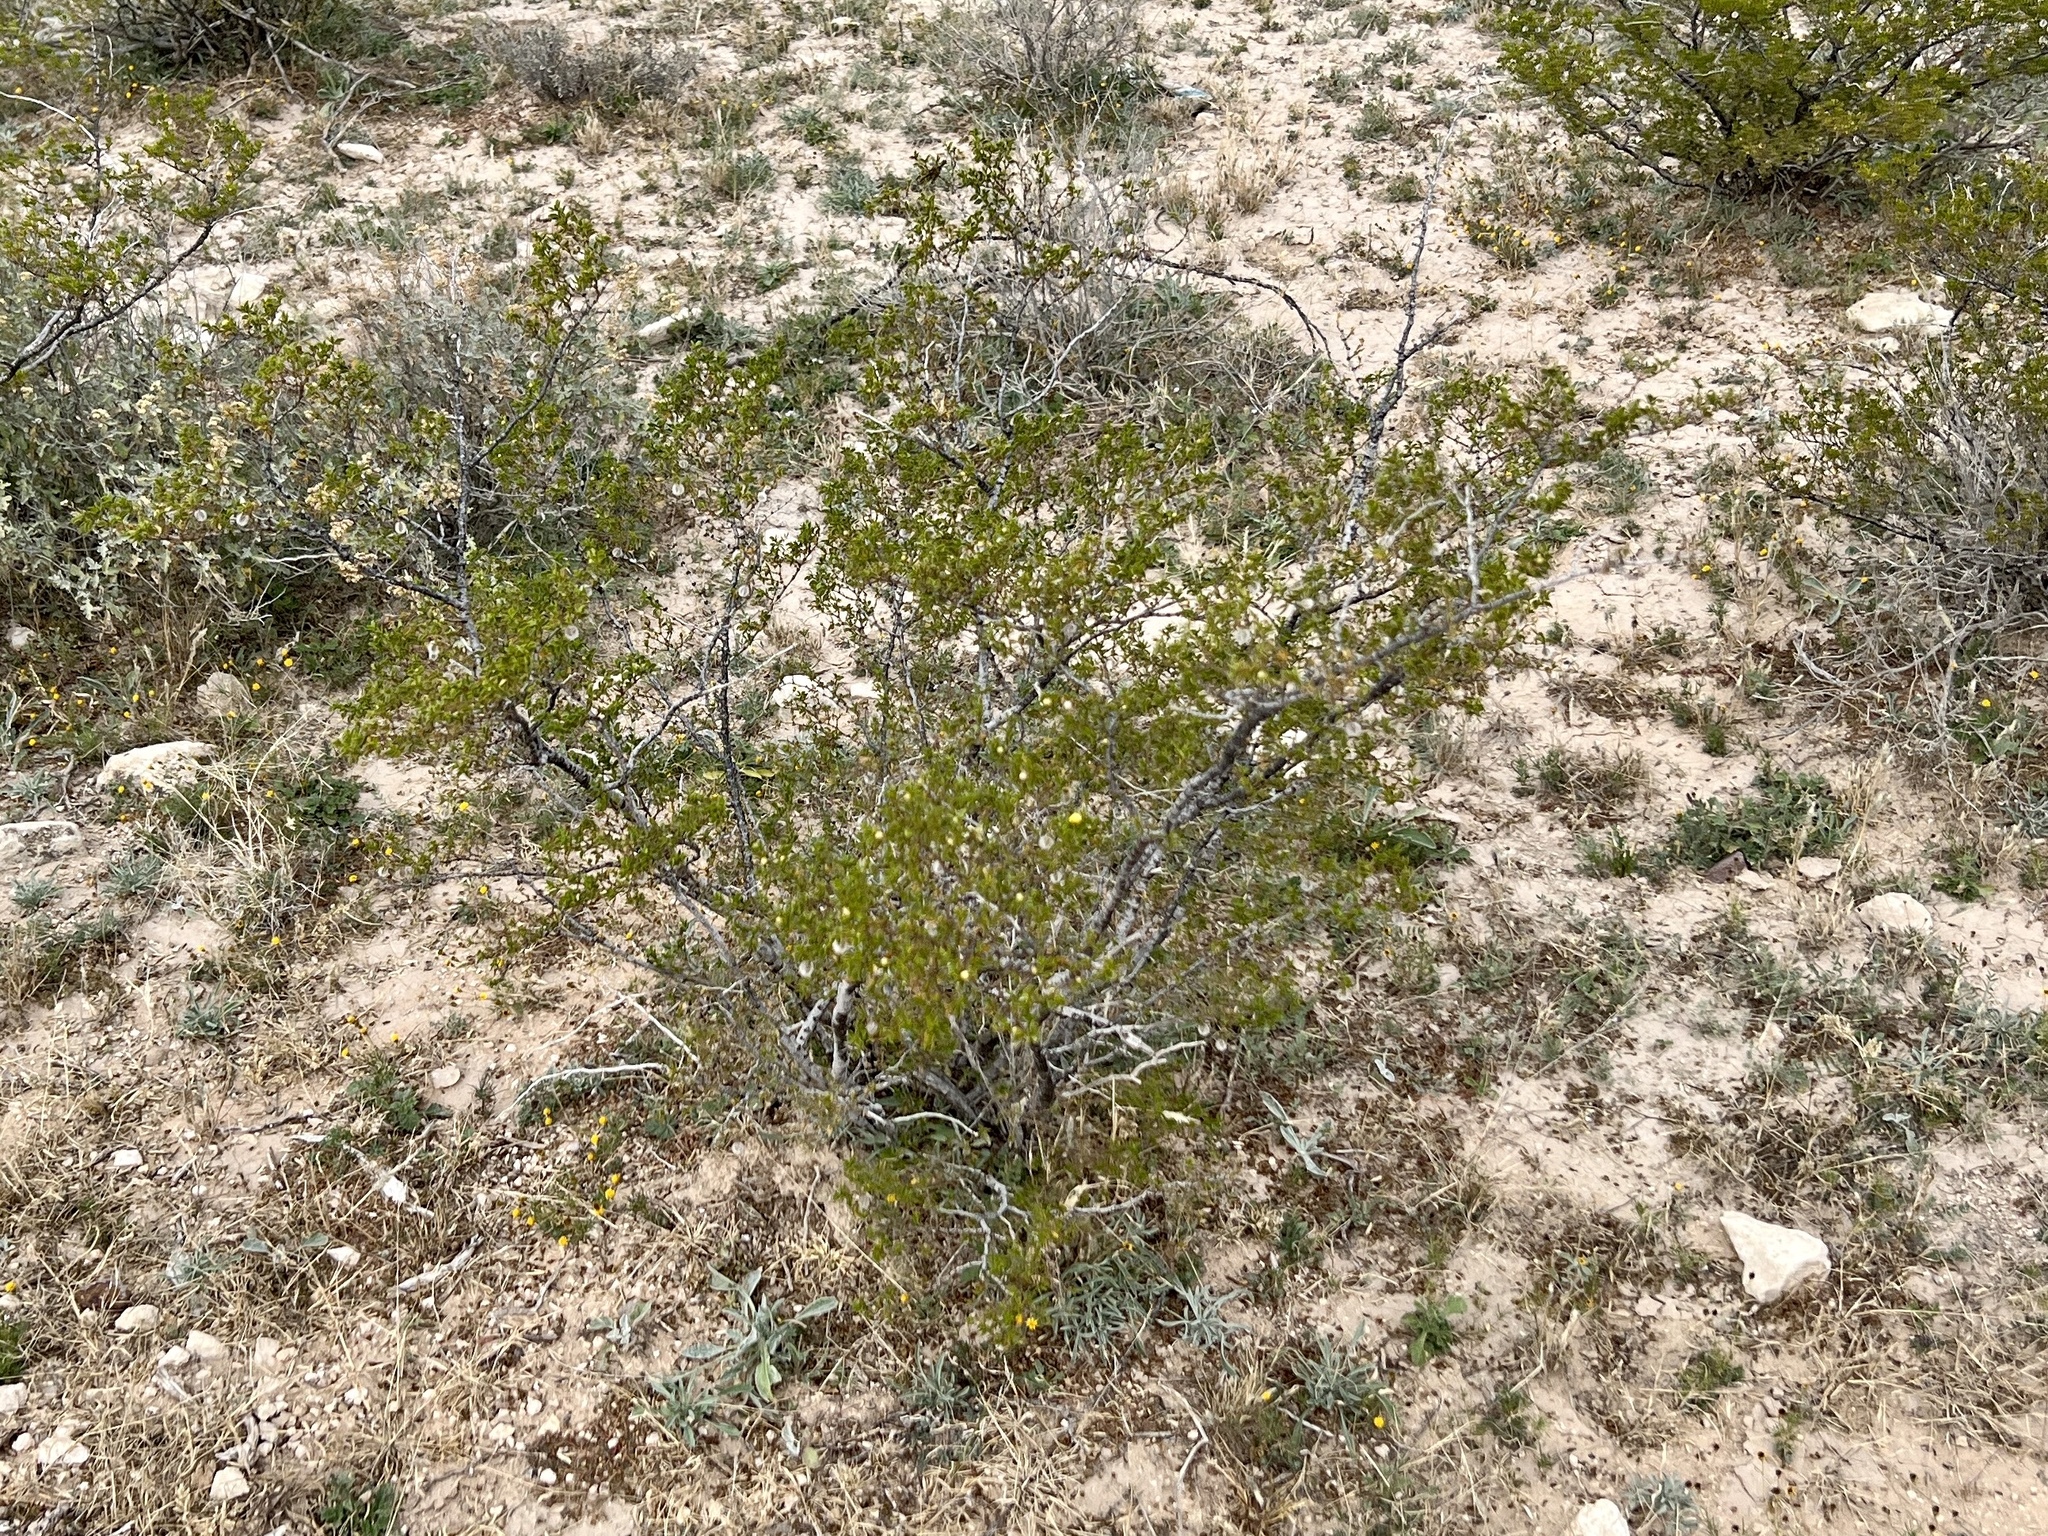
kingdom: Plantae
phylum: Tracheophyta
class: Magnoliopsida
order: Zygophyllales
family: Zygophyllaceae
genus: Larrea
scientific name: Larrea tridentata
